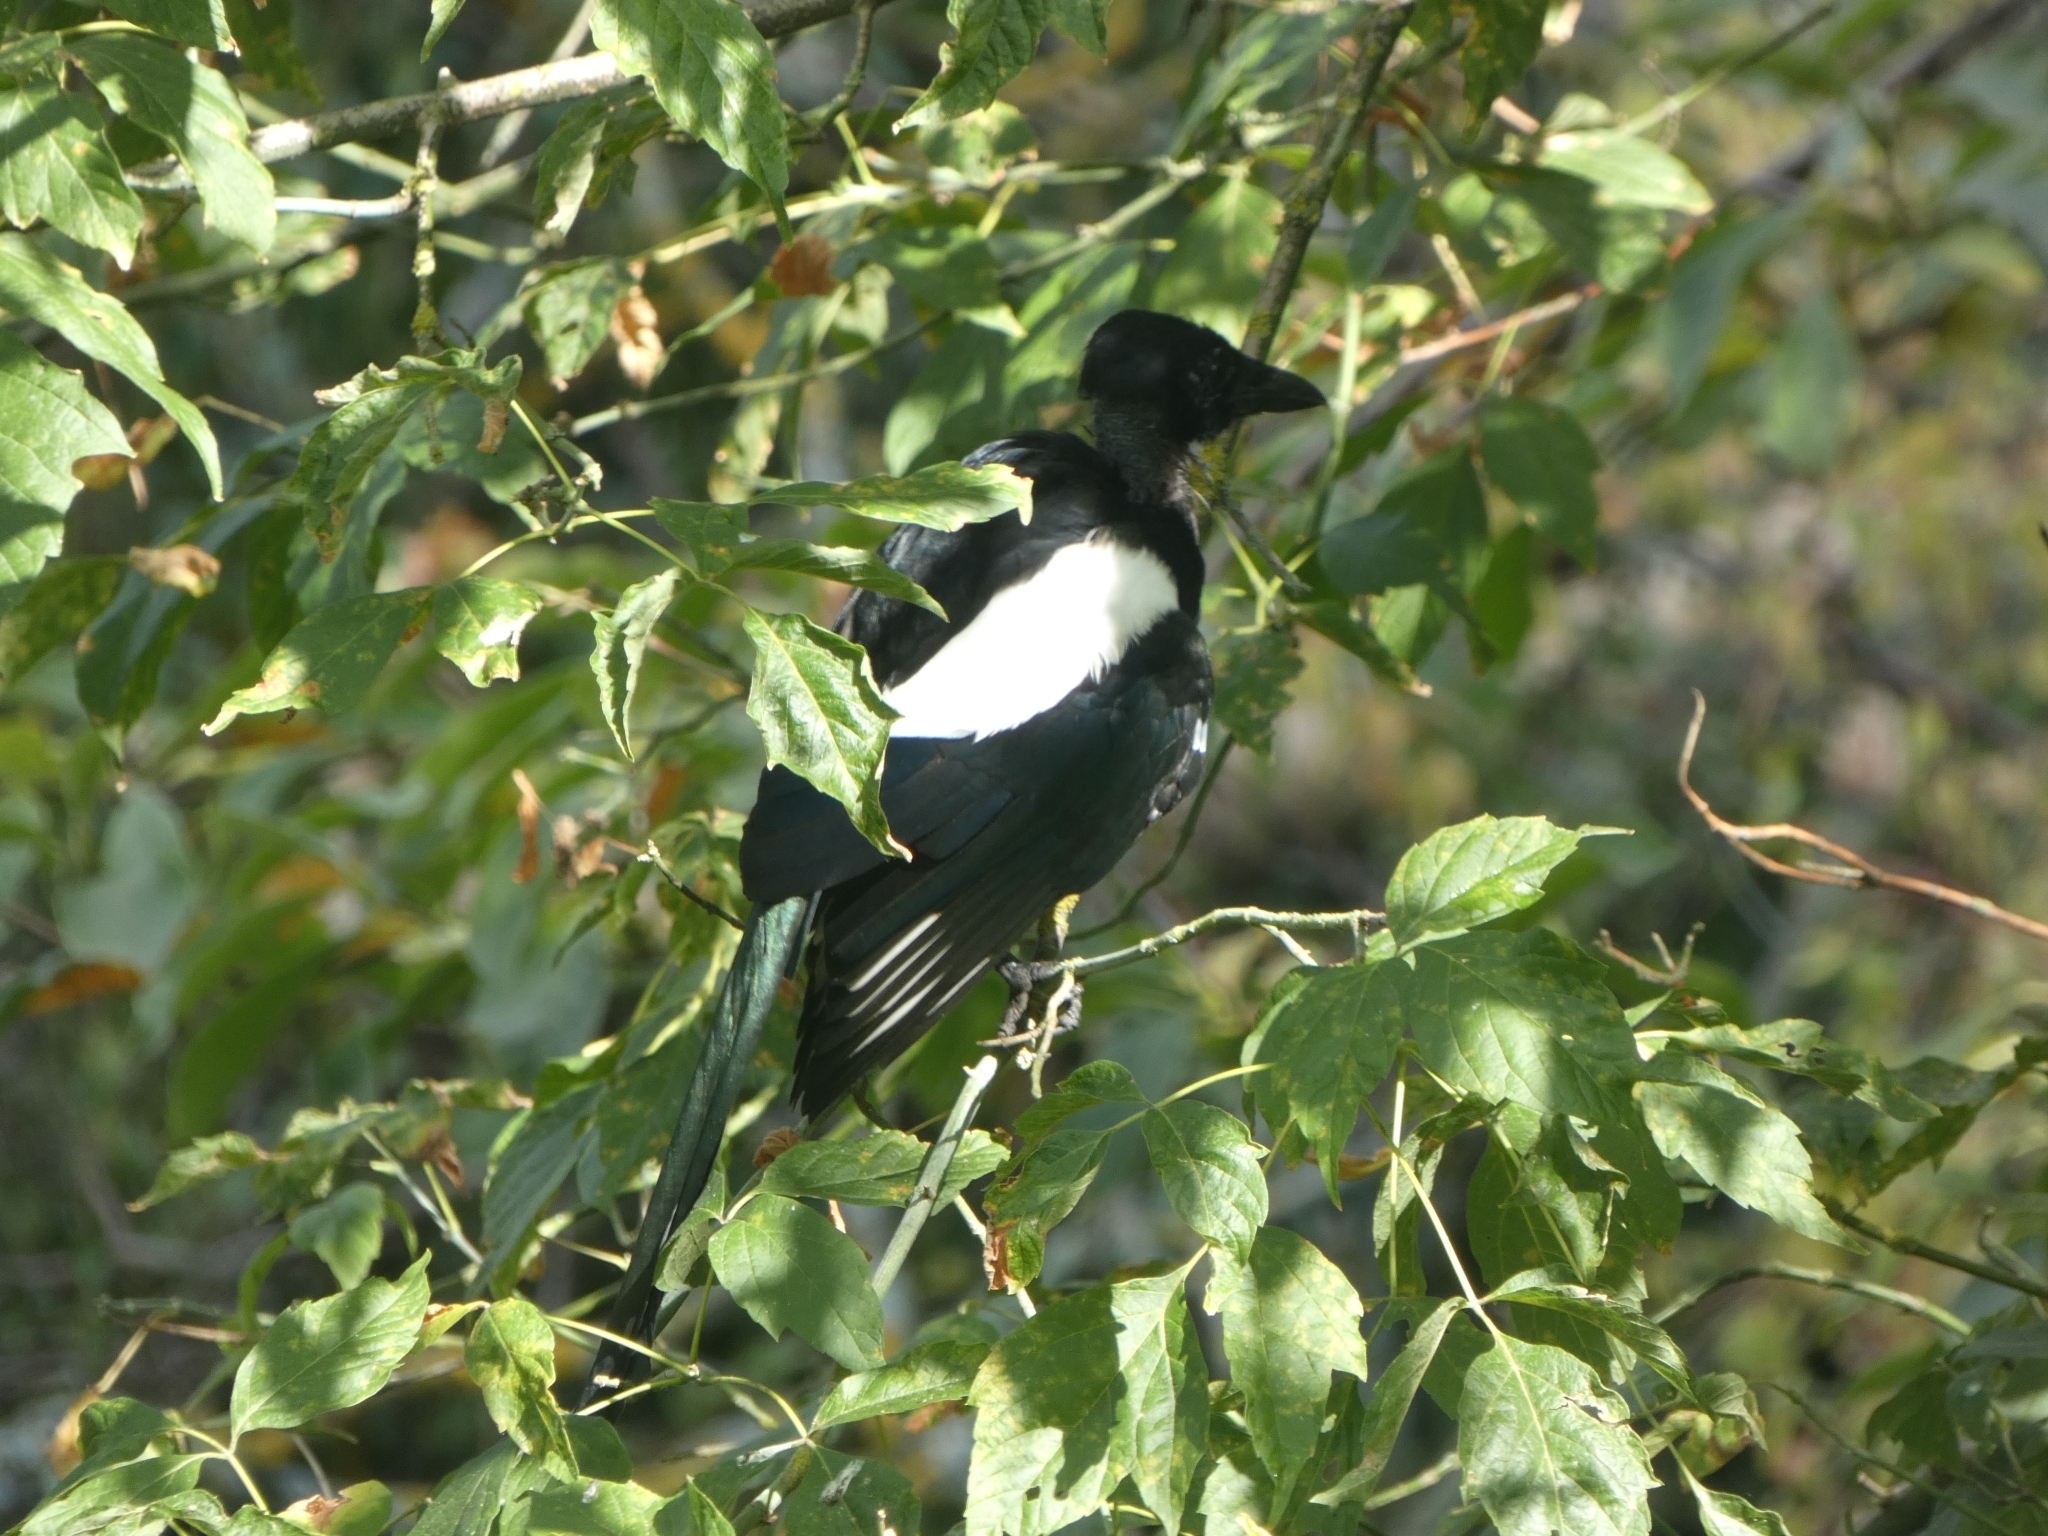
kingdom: Animalia
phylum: Chordata
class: Aves
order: Passeriformes
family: Corvidae
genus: Pica
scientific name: Pica pica
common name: Eurasian magpie
